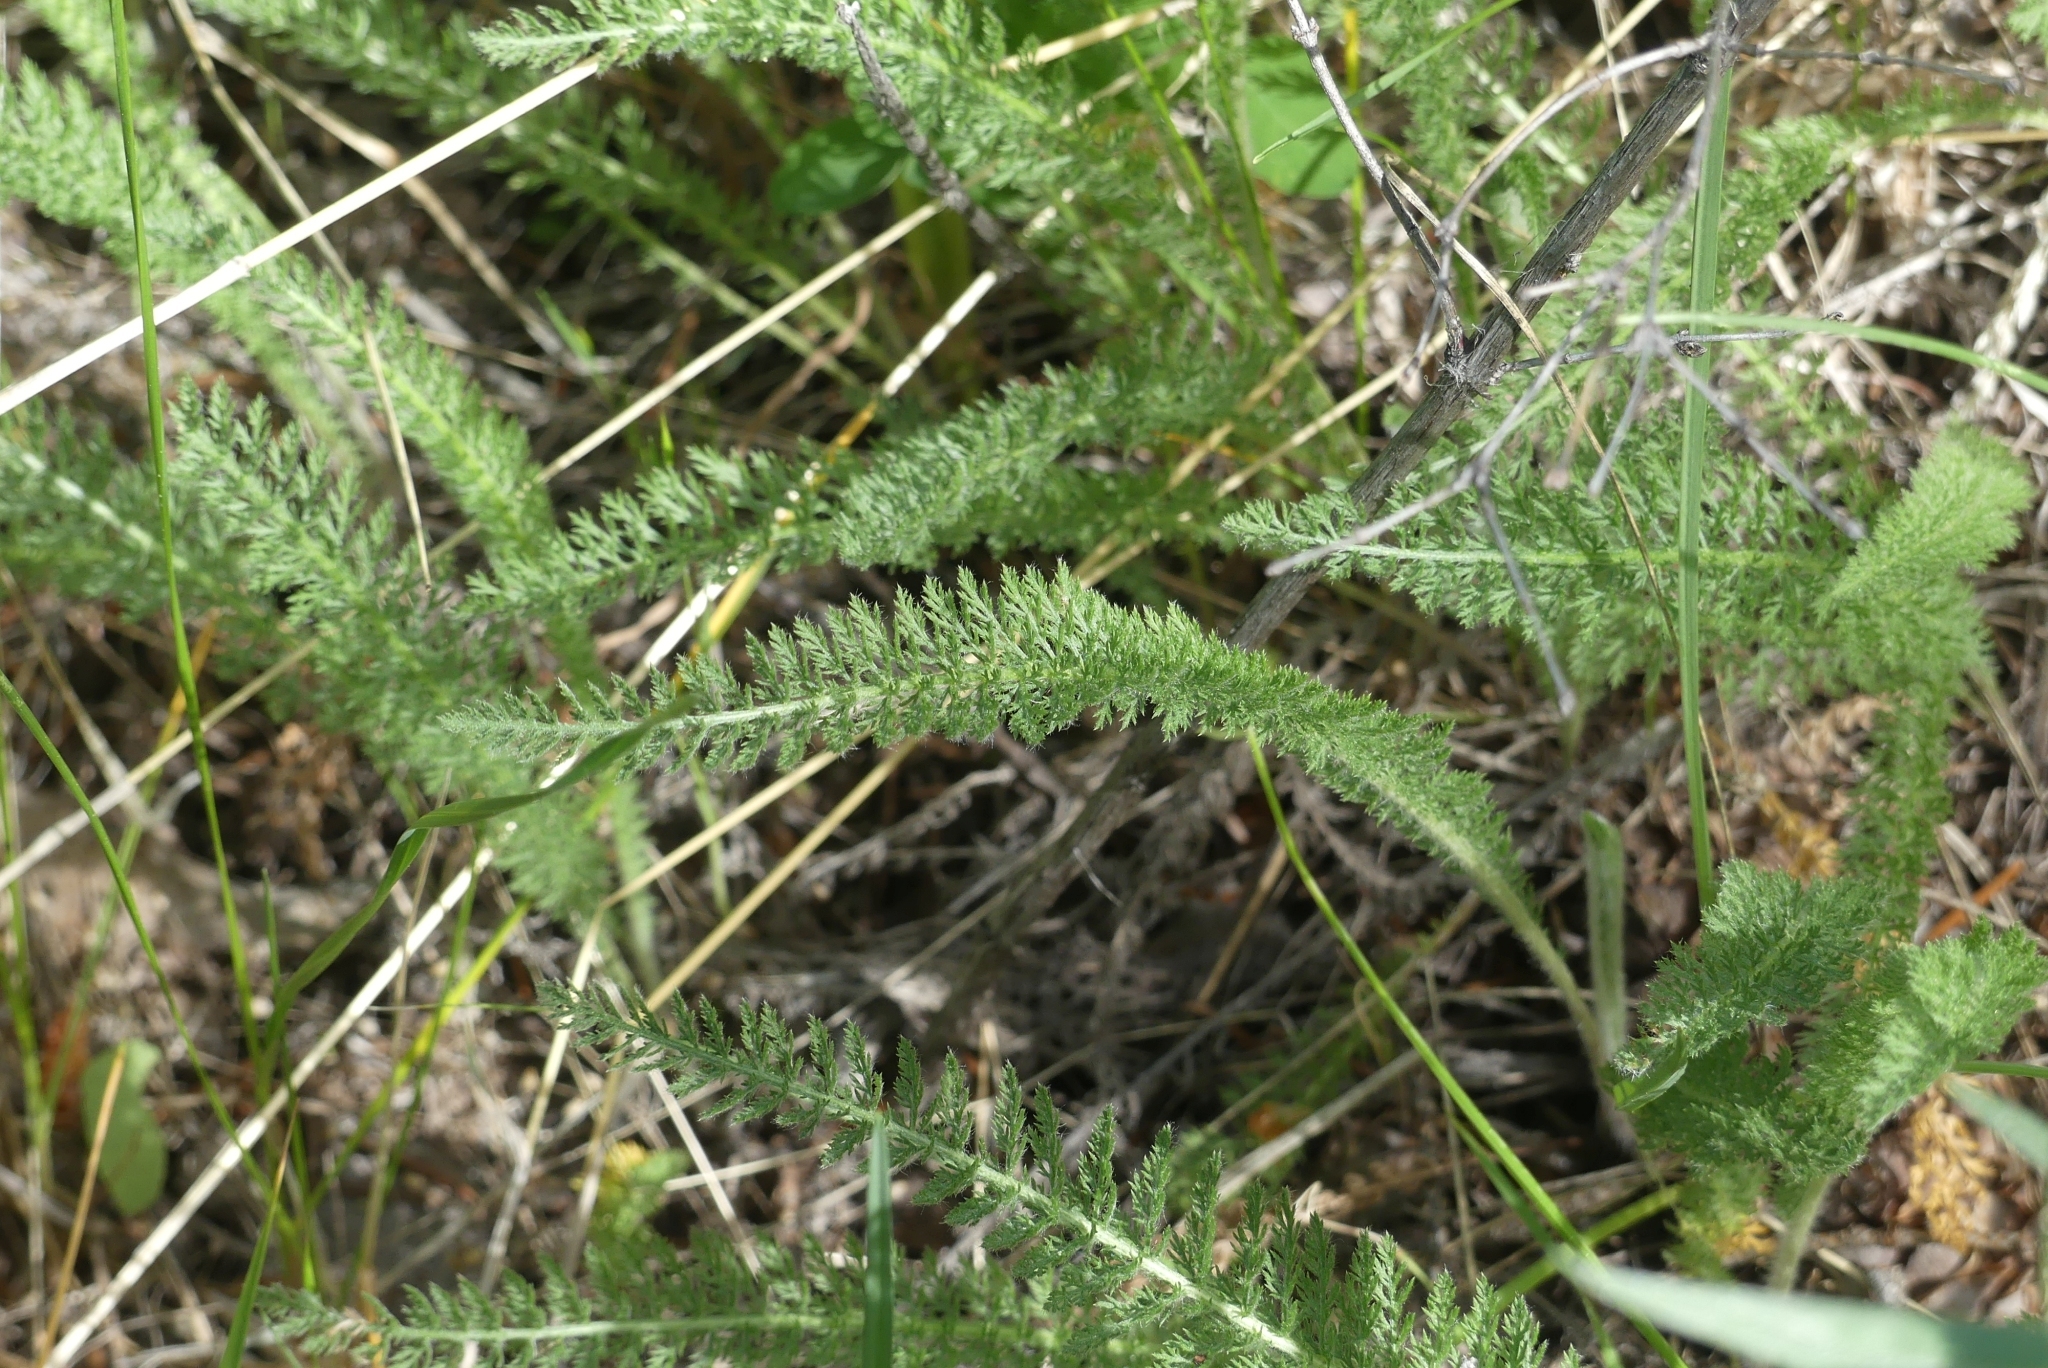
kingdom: Plantae
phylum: Tracheophyta
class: Magnoliopsida
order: Asterales
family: Asteraceae
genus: Achillea
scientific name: Achillea millefolium
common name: Yarrow
